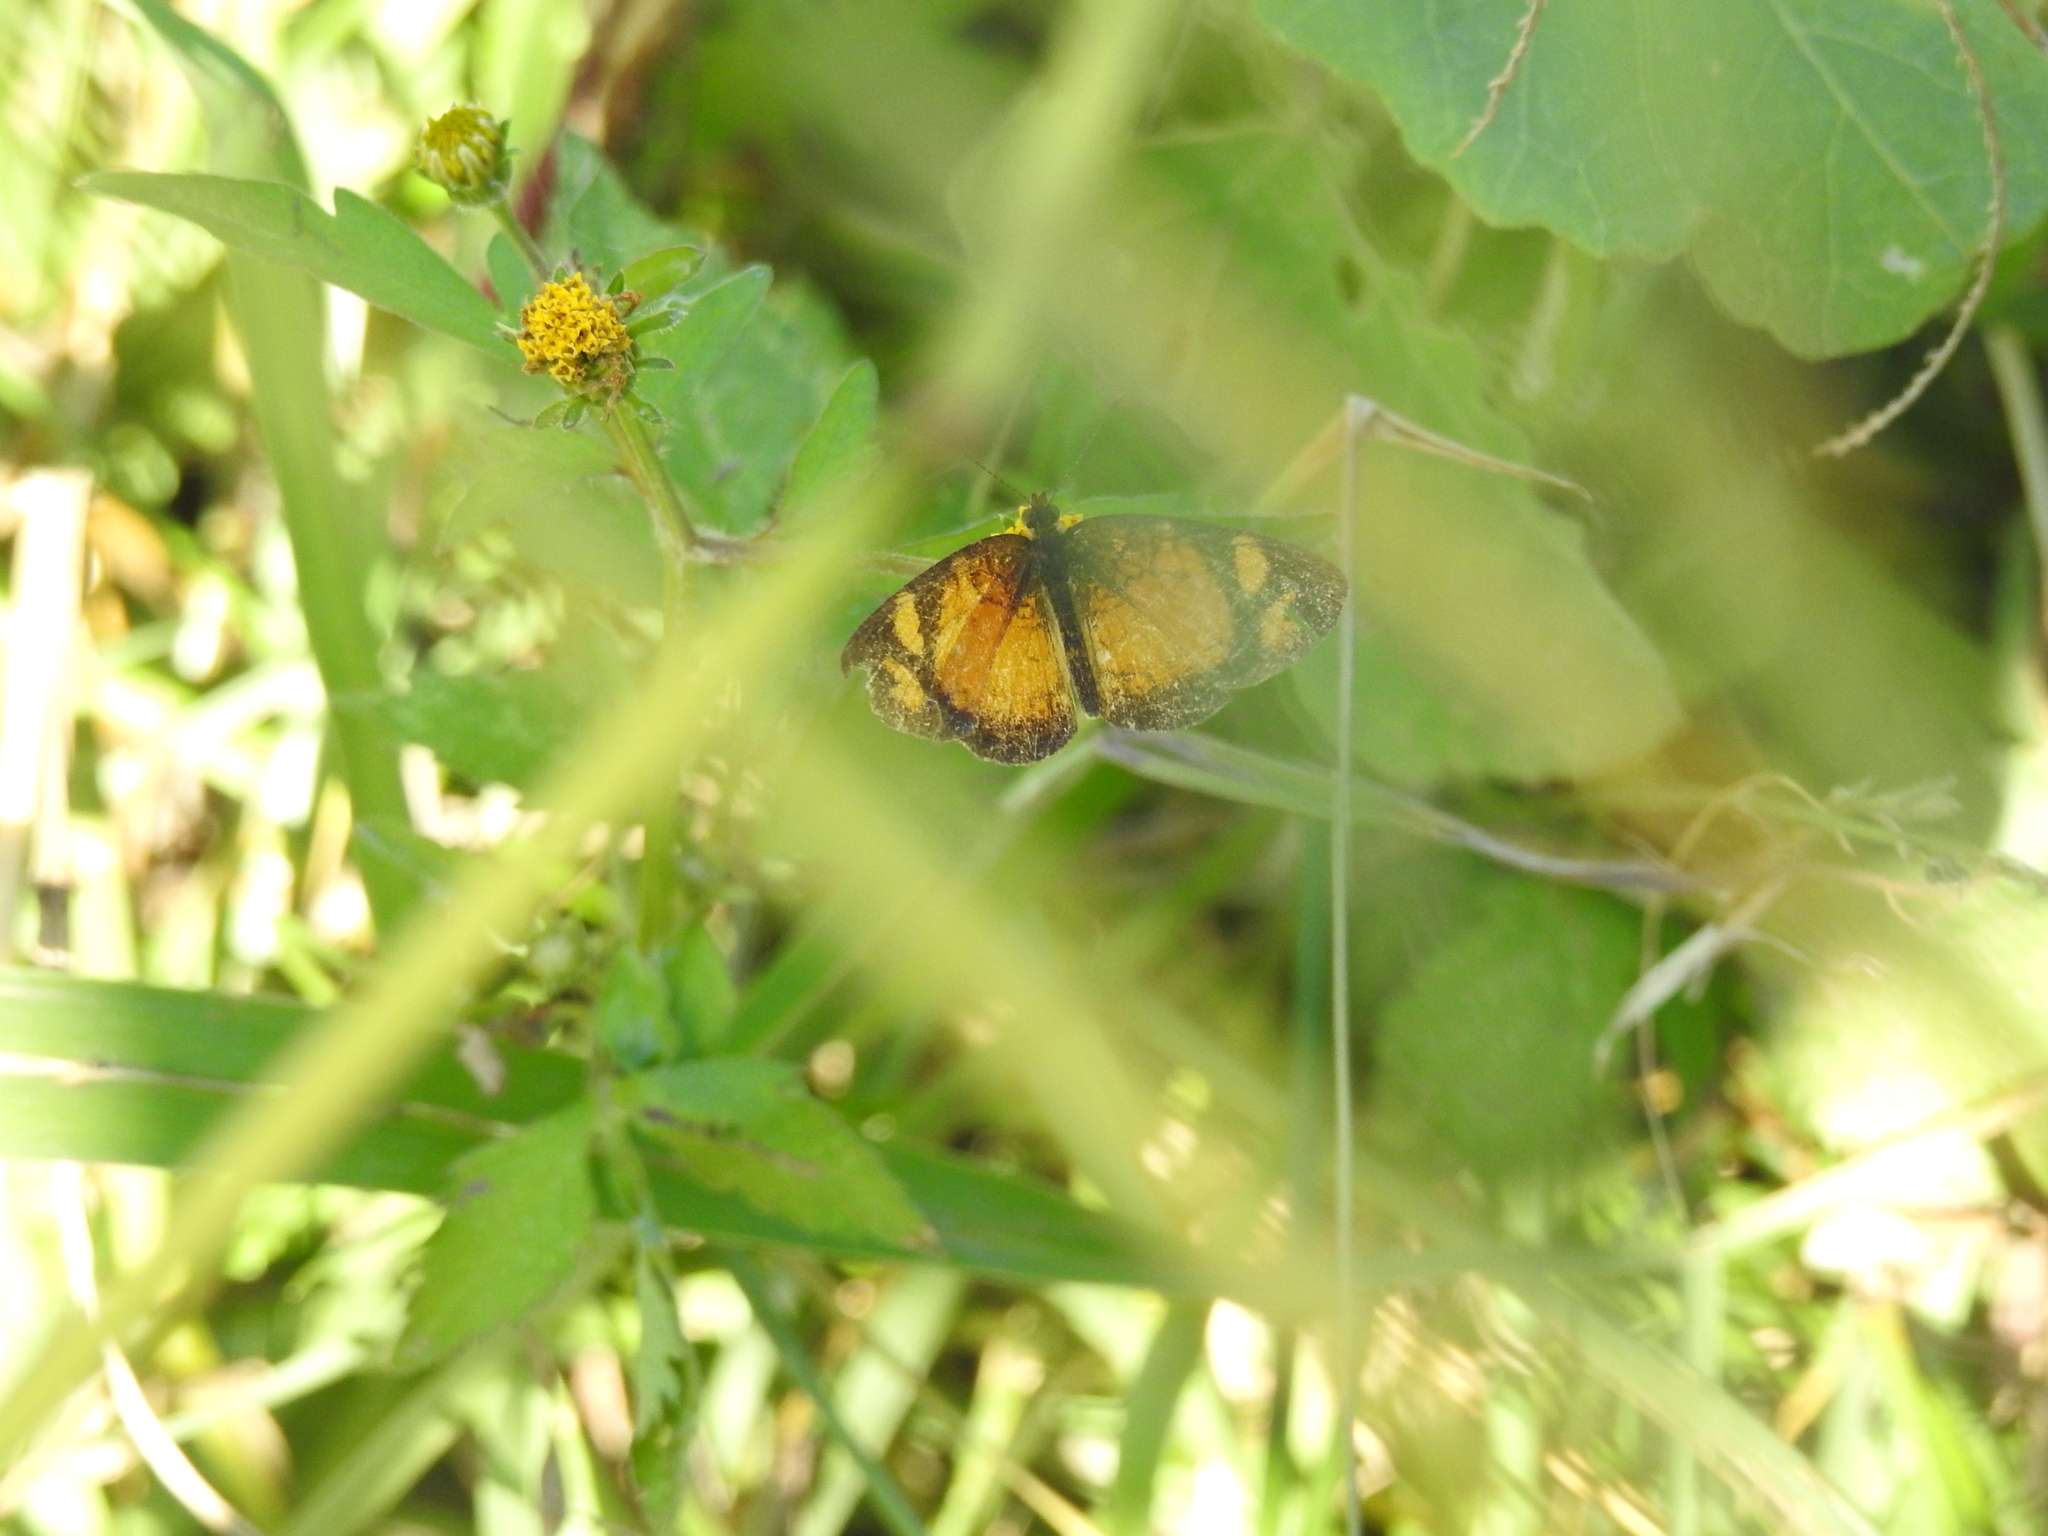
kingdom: Animalia
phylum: Arthropoda
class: Insecta
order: Lepidoptera
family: Nymphalidae
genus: Tegosa
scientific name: Tegosa claudina
